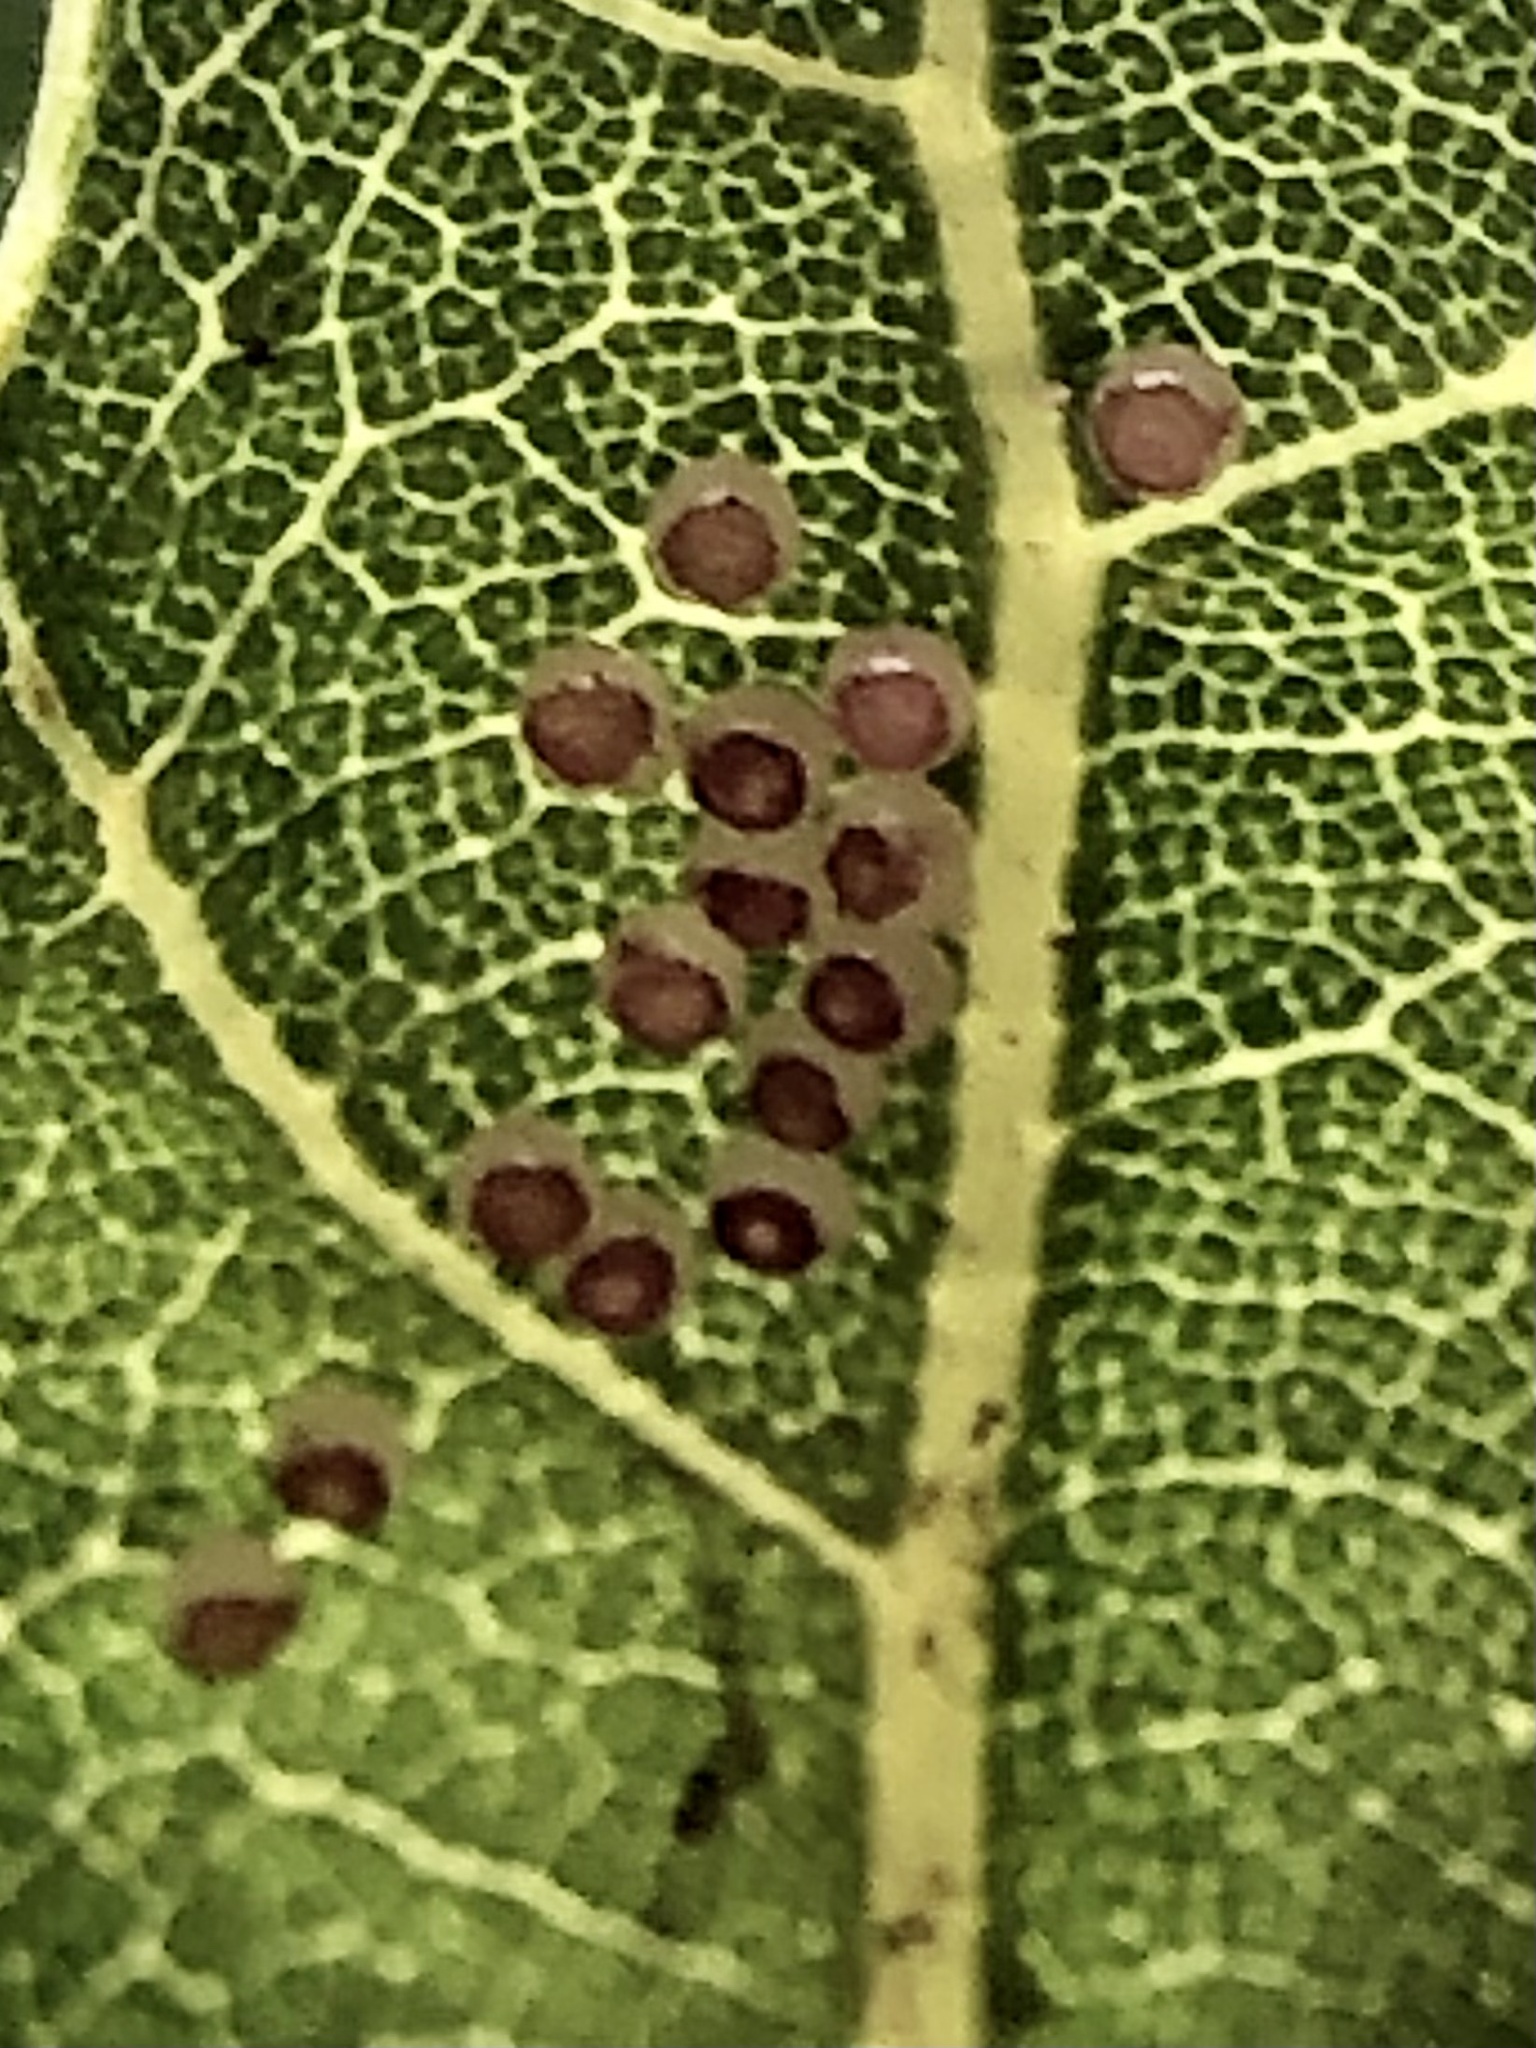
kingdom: Animalia
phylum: Arthropoda
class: Insecta
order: Lepidoptera
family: Notodontidae
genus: Phryganidia
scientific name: Phryganidia californica
